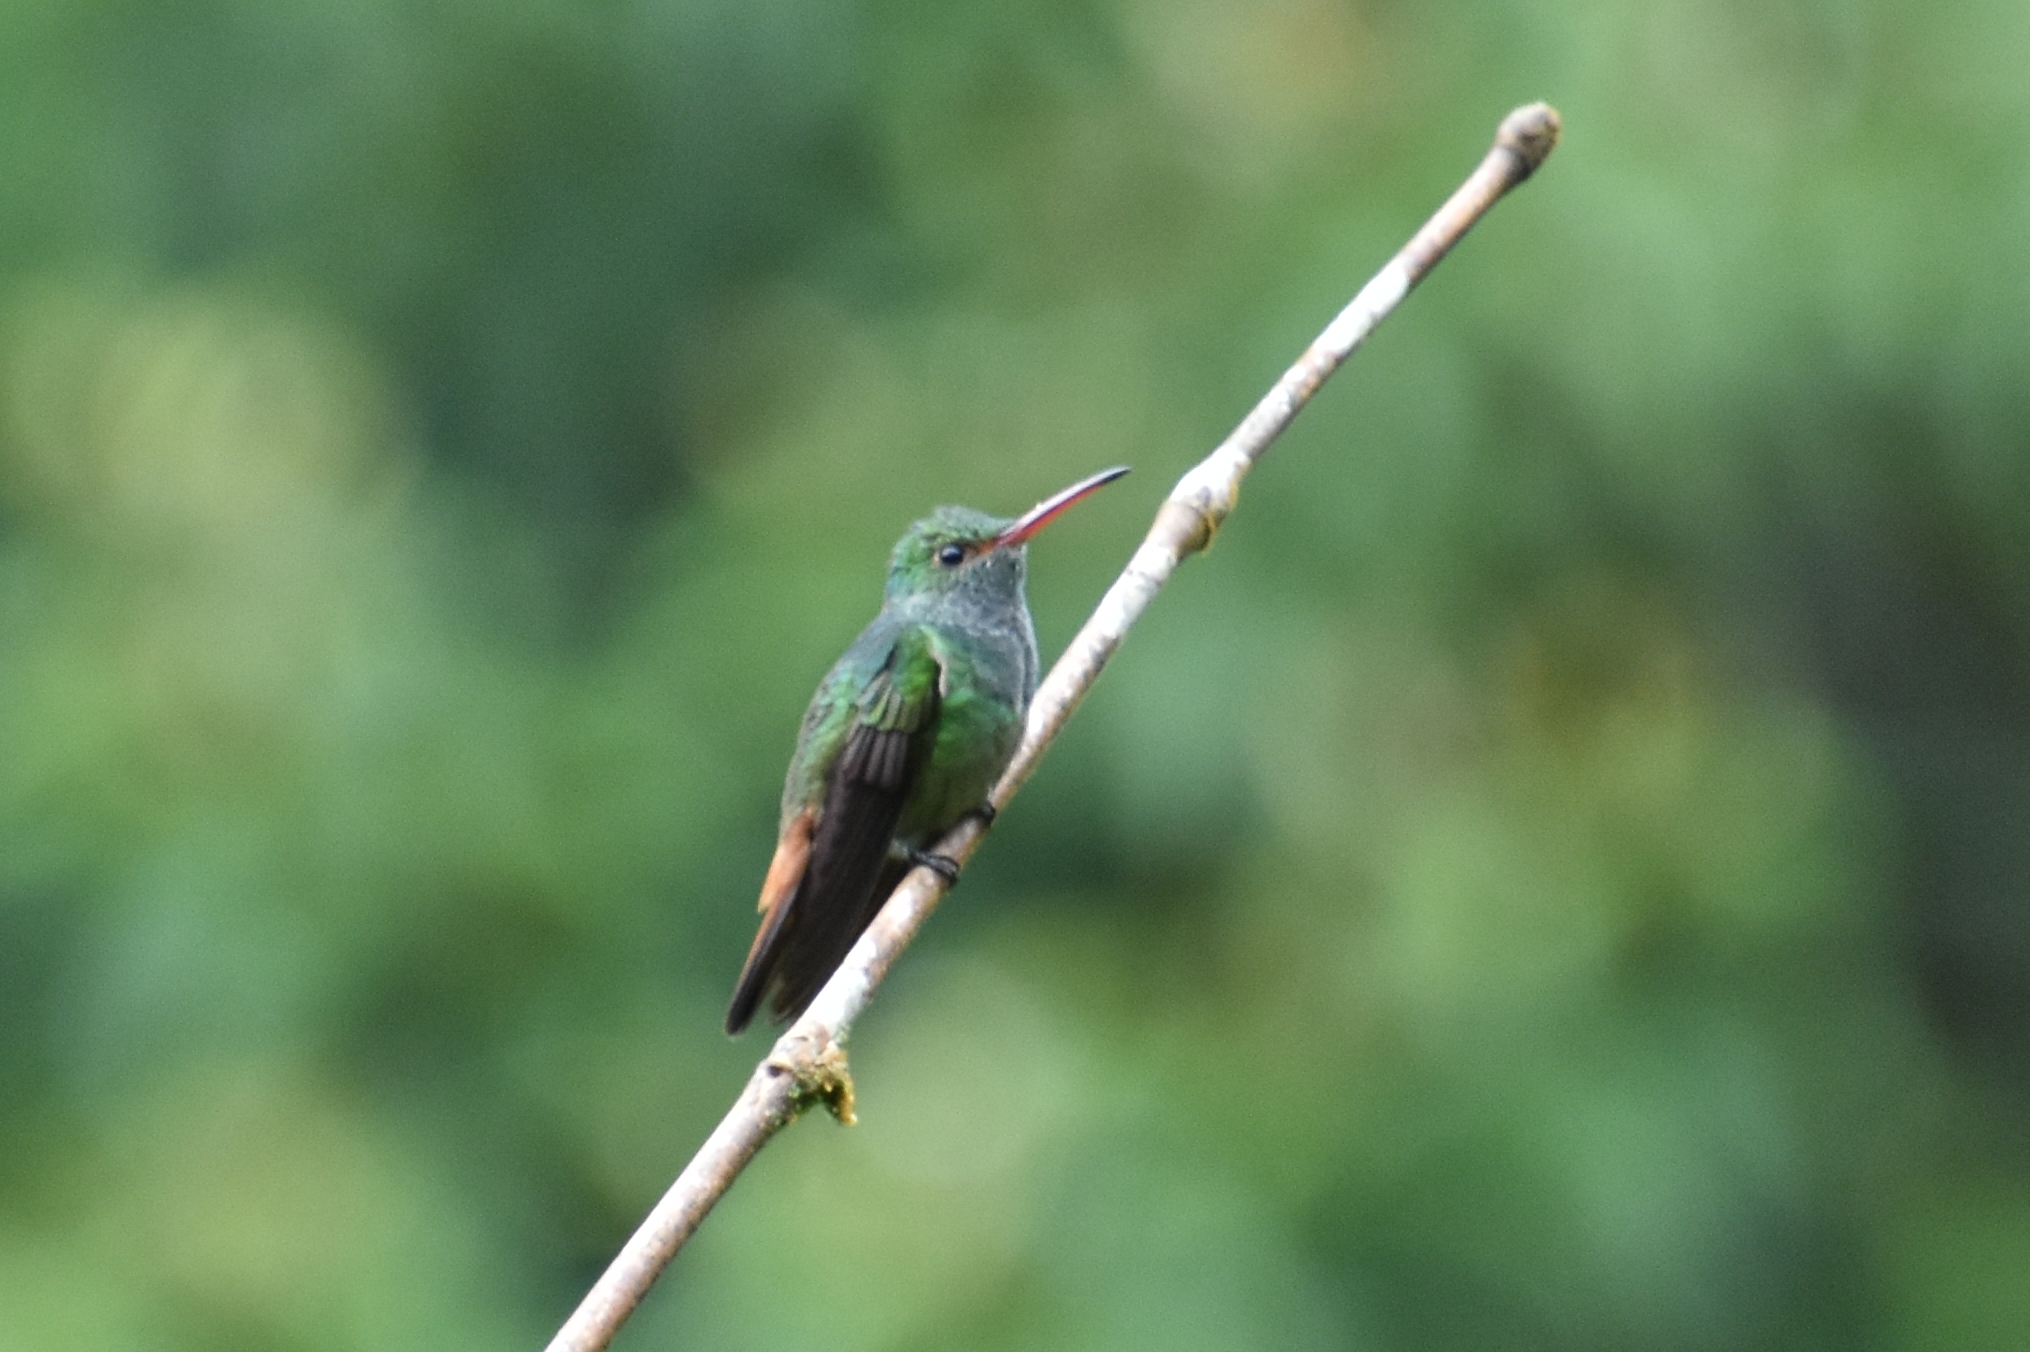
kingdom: Animalia
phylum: Chordata
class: Aves
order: Apodiformes
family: Trochilidae
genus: Amazilia
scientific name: Amazilia tzacatl
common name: Rufous-tailed hummingbird
